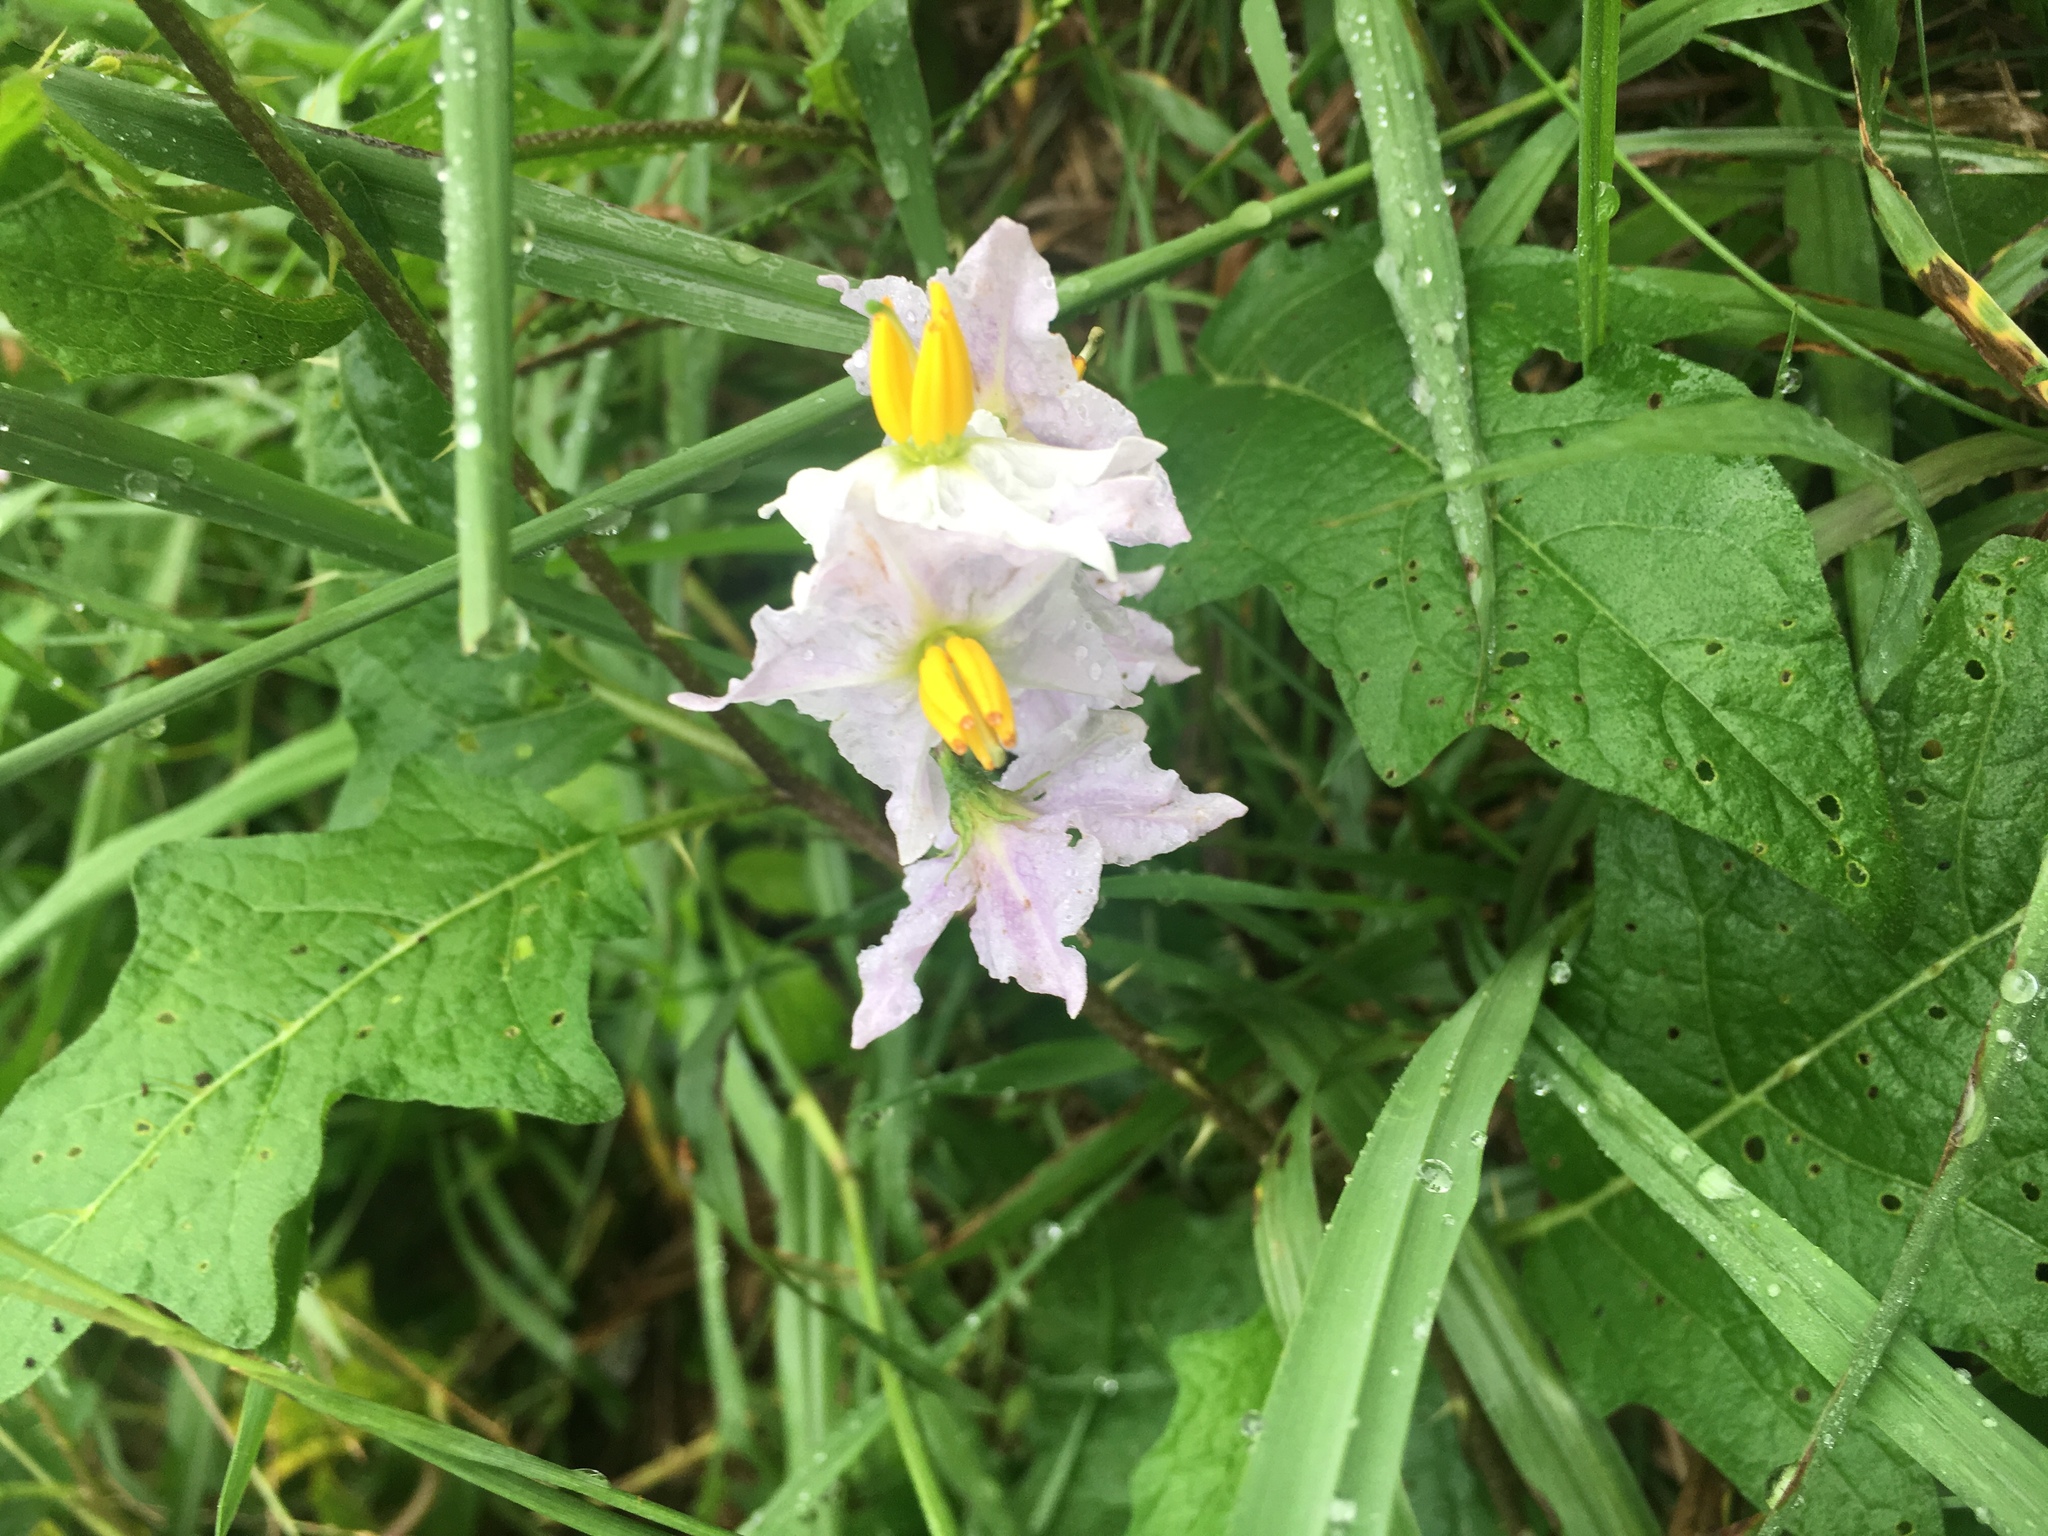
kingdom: Plantae
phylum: Tracheophyta
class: Magnoliopsida
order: Solanales
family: Solanaceae
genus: Solanum
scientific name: Solanum carolinense
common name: Horse-nettle
